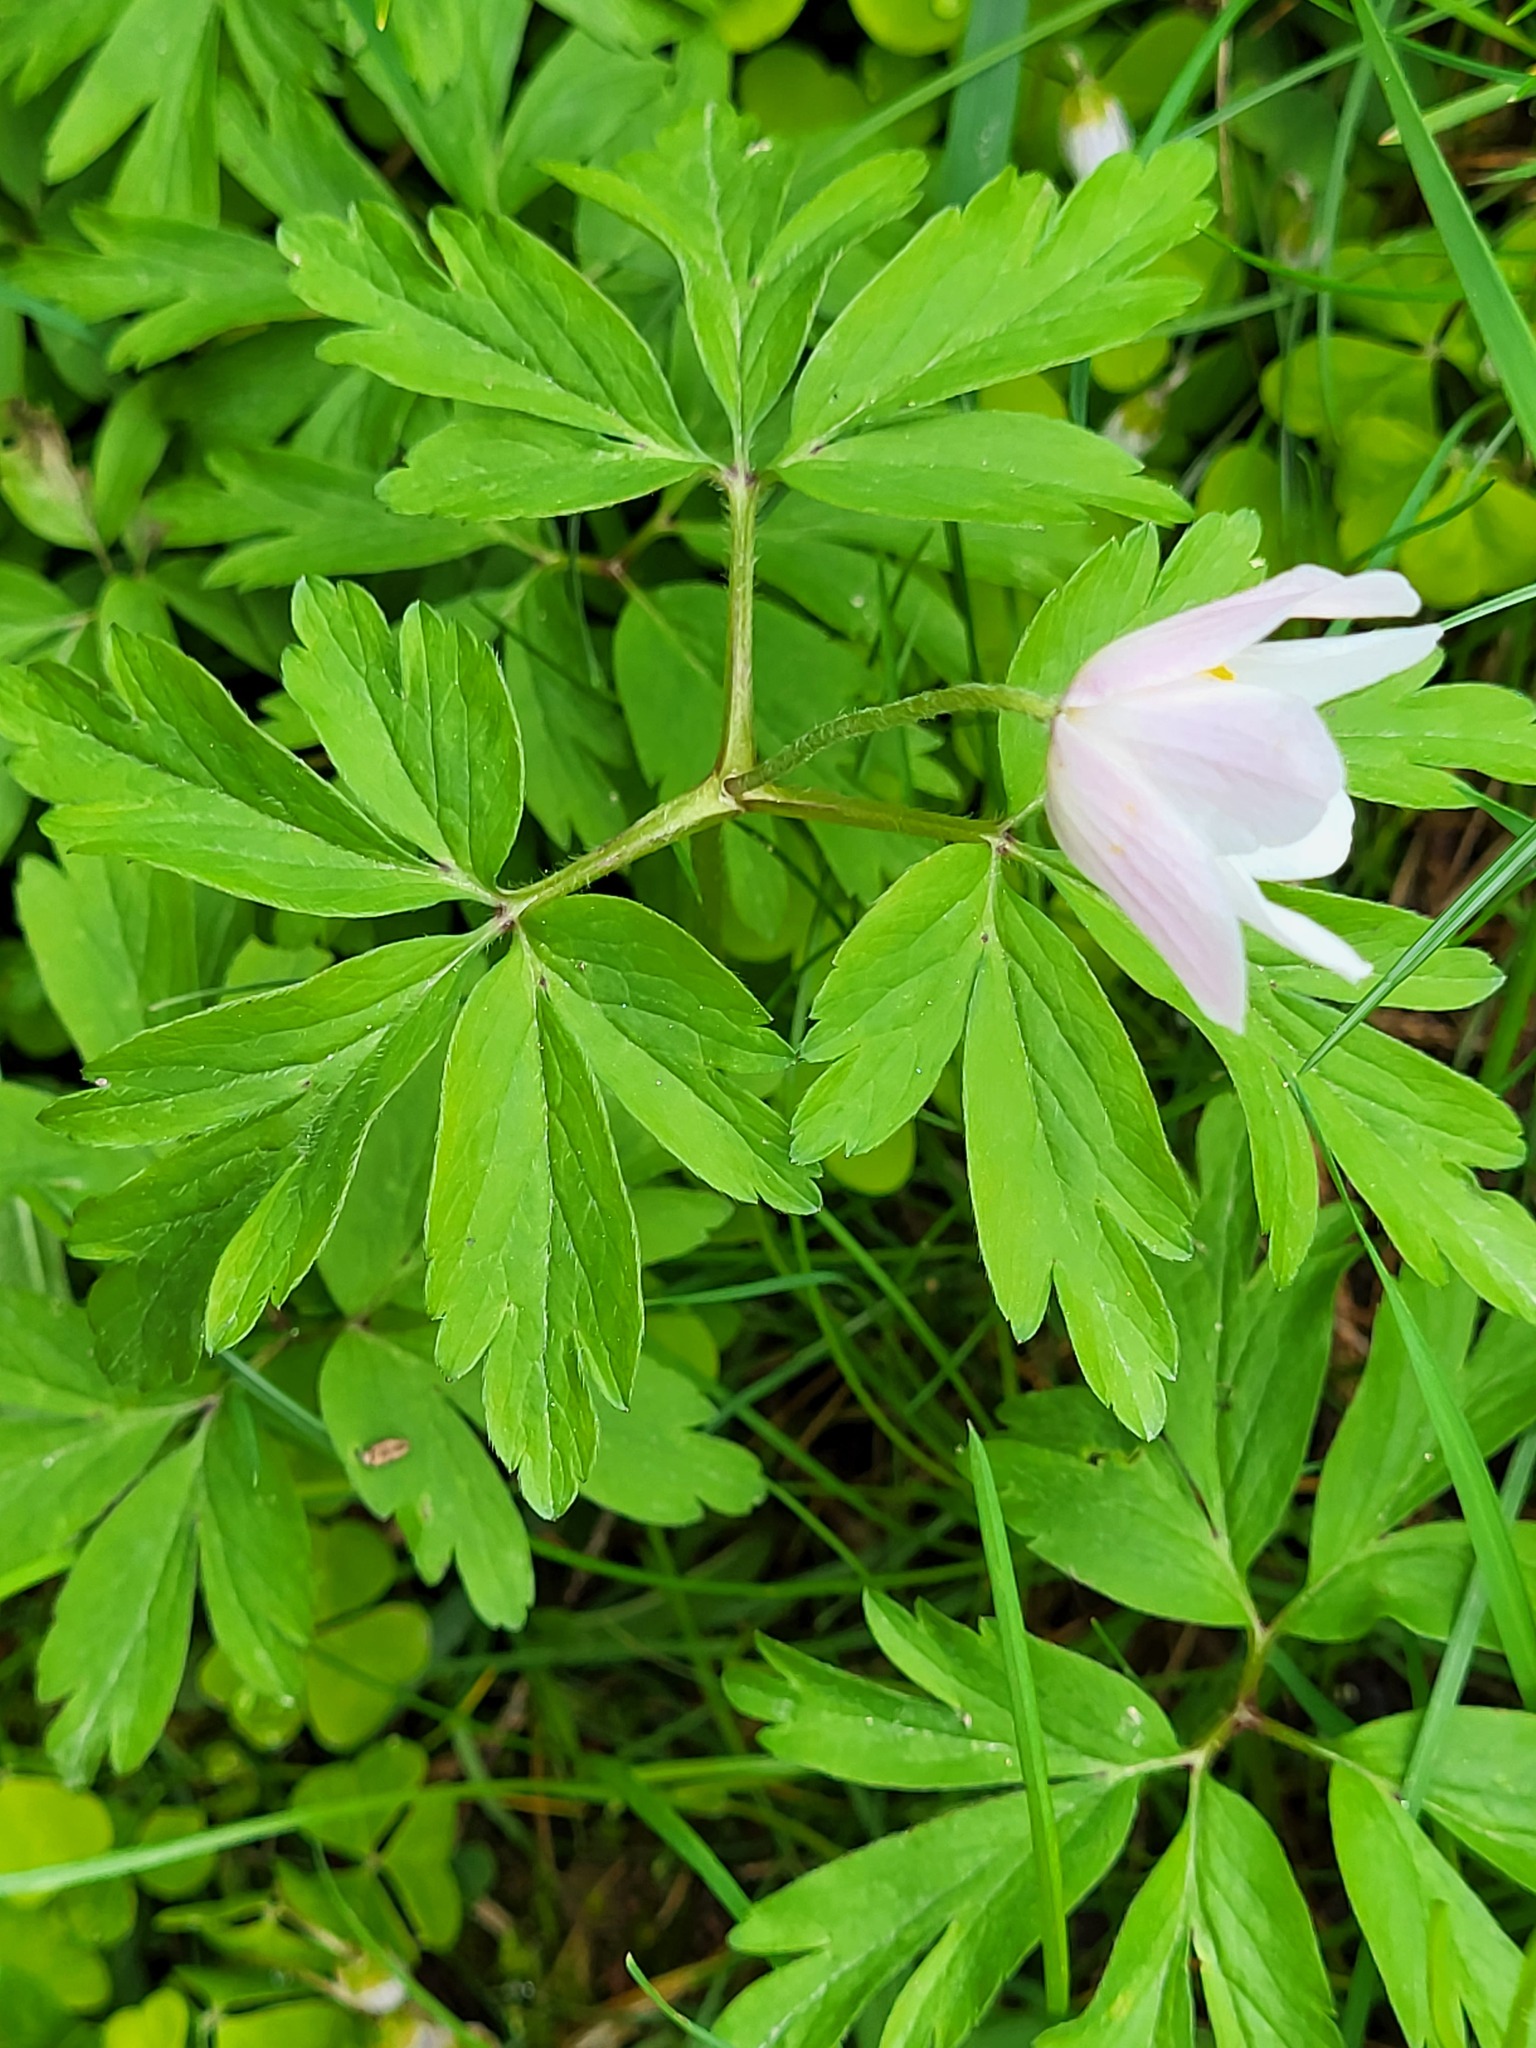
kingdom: Plantae
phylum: Tracheophyta
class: Magnoliopsida
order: Ranunculales
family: Ranunculaceae
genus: Anemone
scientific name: Anemone nemorosa
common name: Wood anemone
